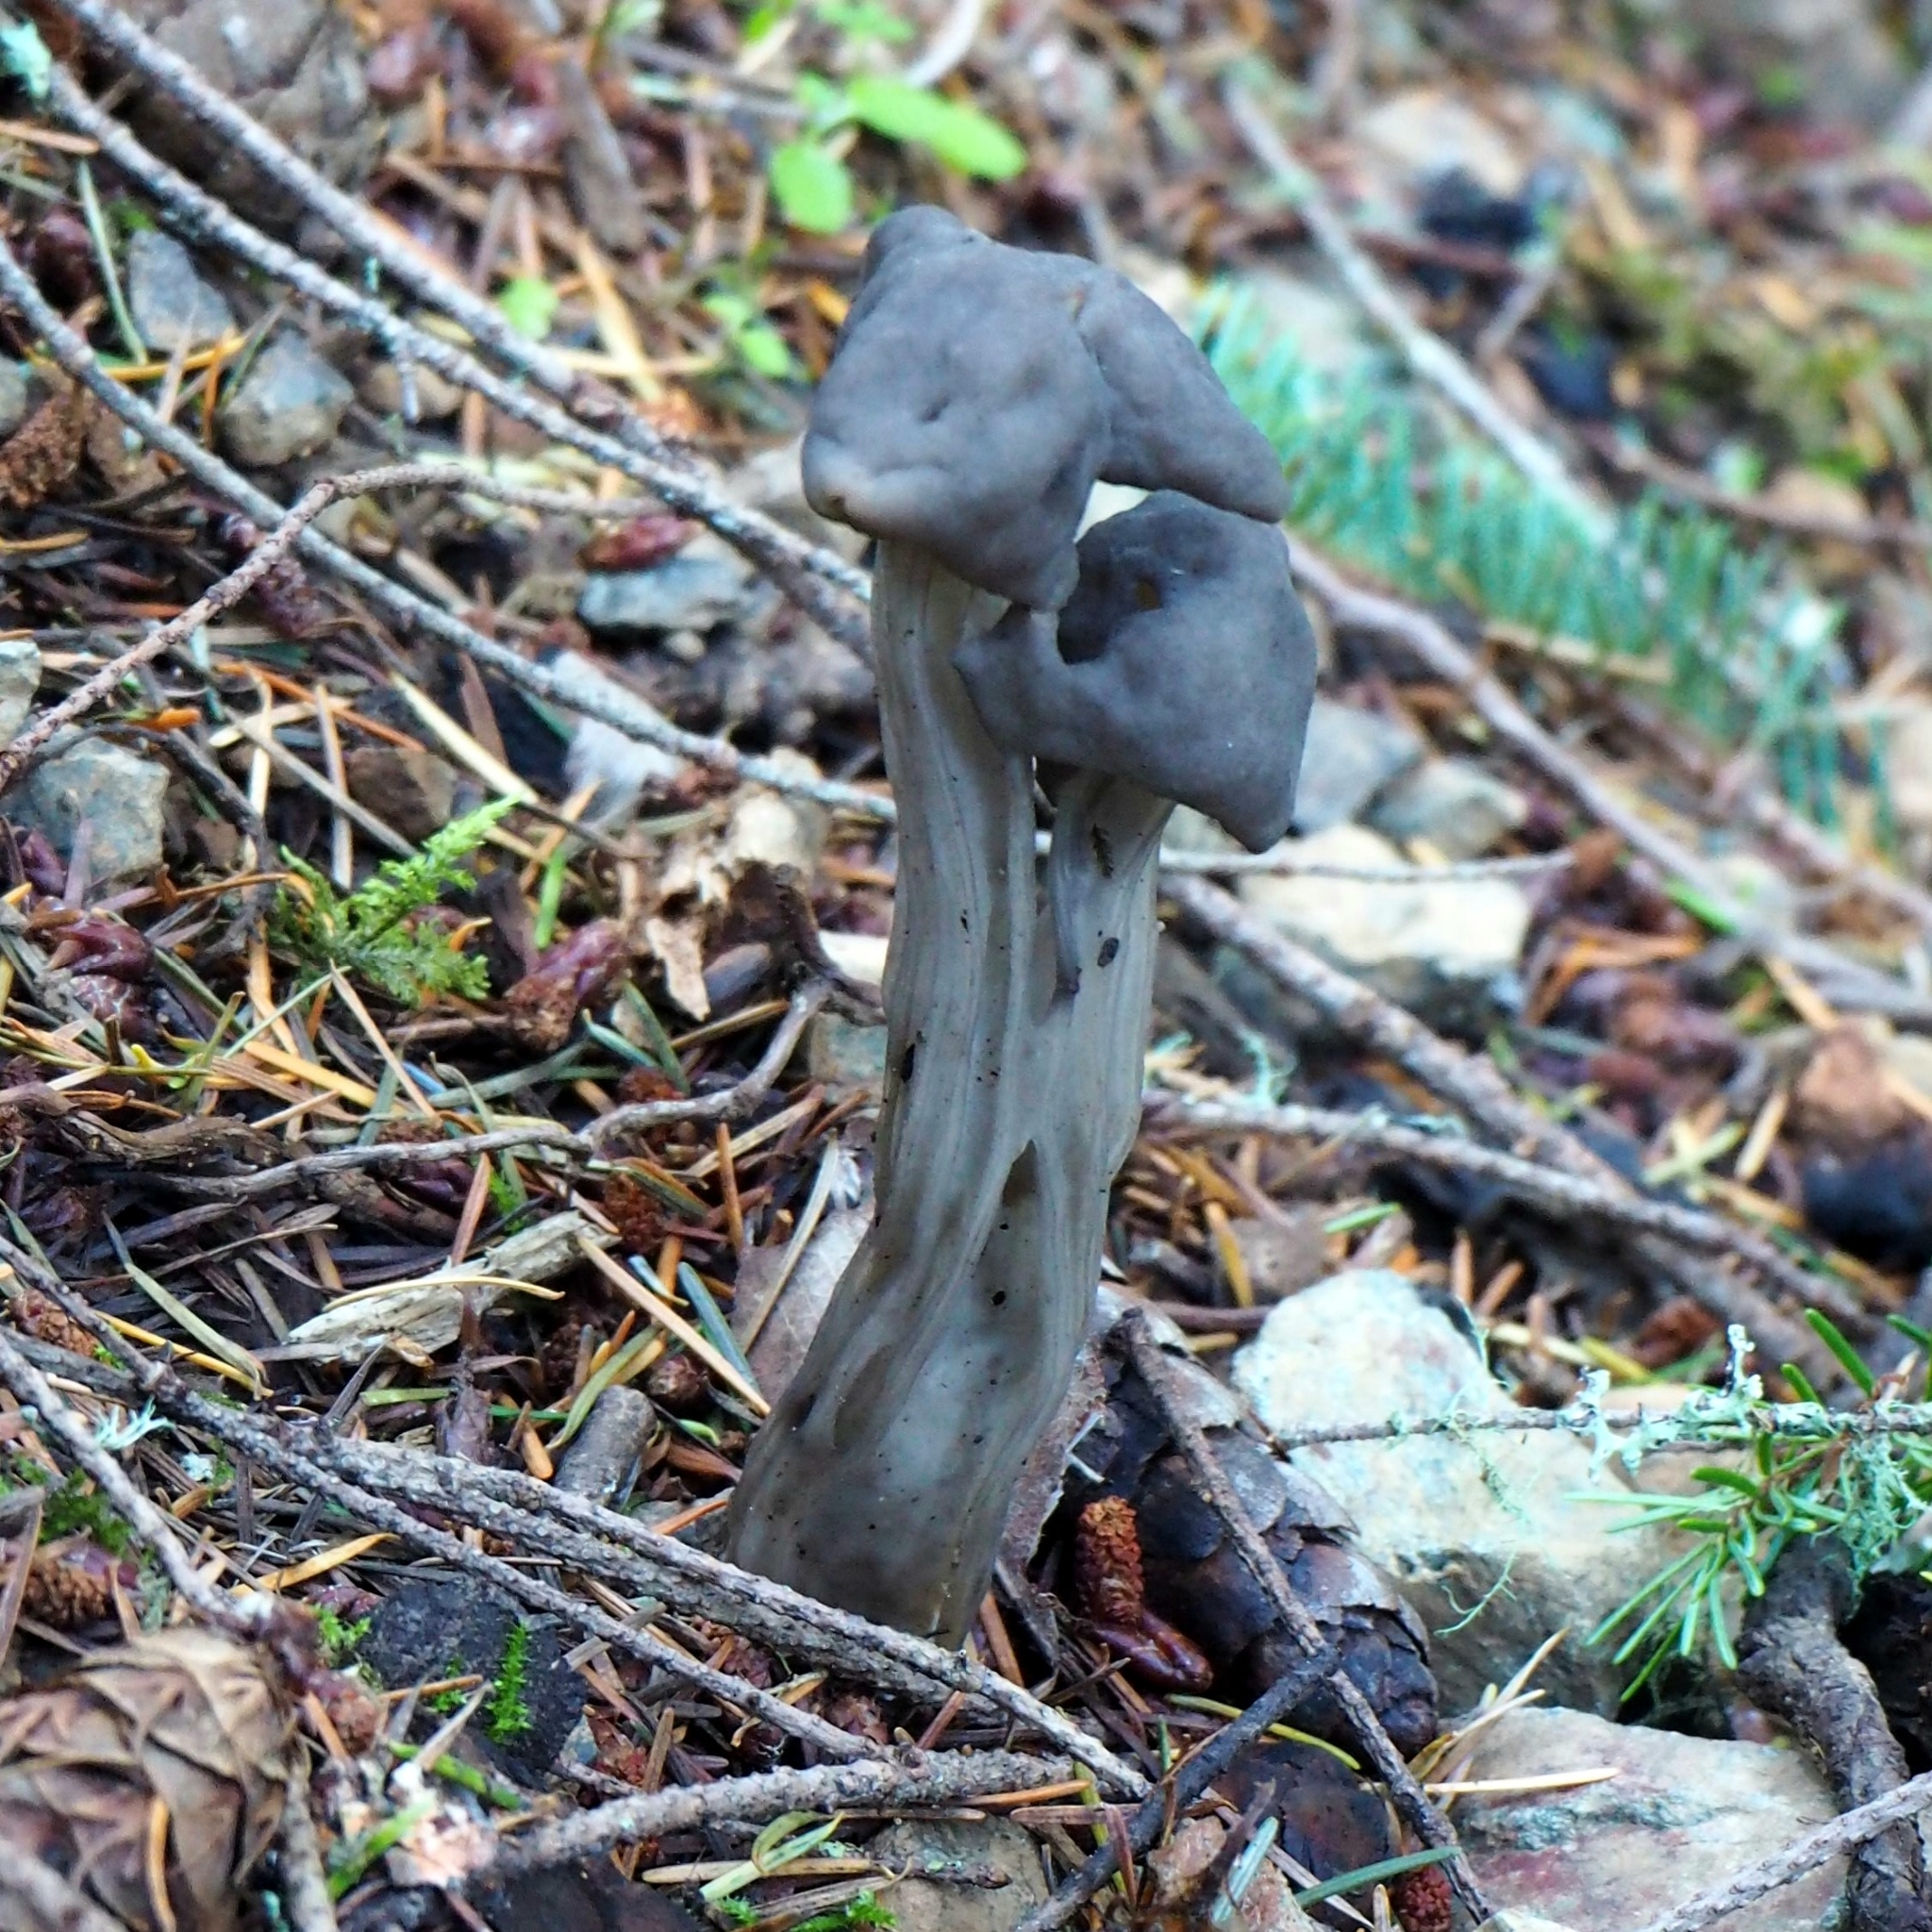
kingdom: Fungi
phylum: Ascomycota
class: Pezizomycetes
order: Pezizales
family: Helvellaceae
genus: Helvella
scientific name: Helvella vespertina
